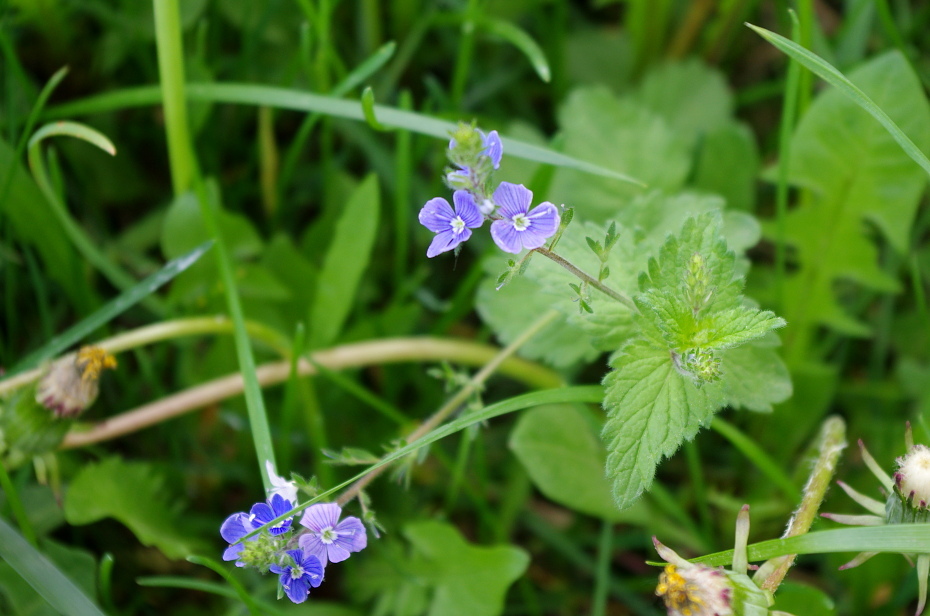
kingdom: Plantae
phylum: Tracheophyta
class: Magnoliopsida
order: Lamiales
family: Plantaginaceae
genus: Veronica
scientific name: Veronica chamaedrys
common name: Germander speedwell
